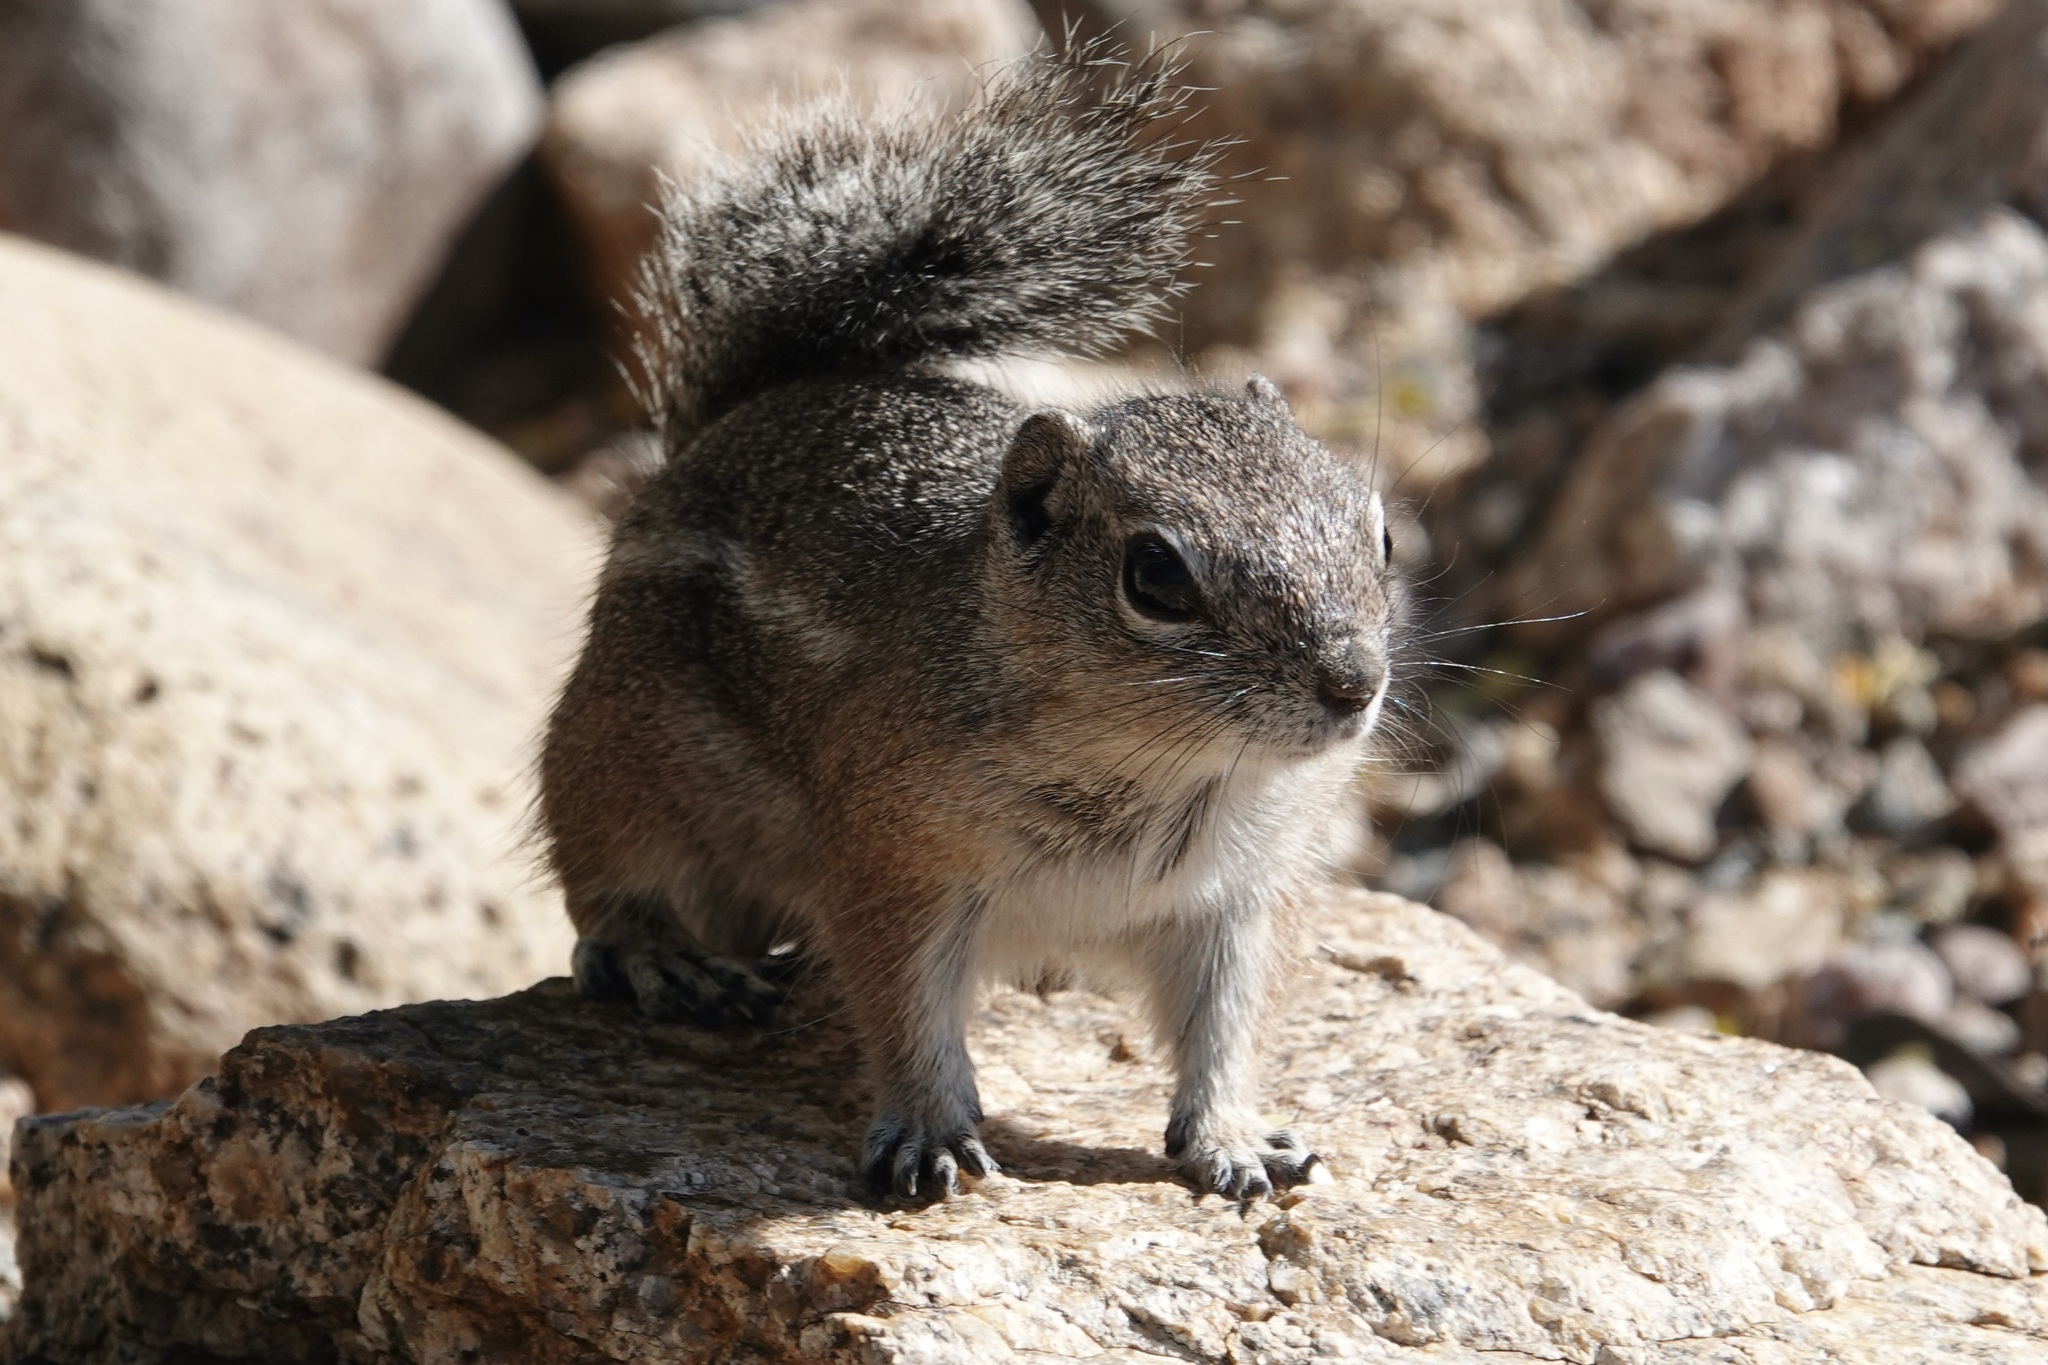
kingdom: Animalia
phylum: Chordata
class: Mammalia
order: Rodentia
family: Sciuridae
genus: Ammospermophilus
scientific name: Ammospermophilus harrisii
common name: Harris's antelope squirrel
